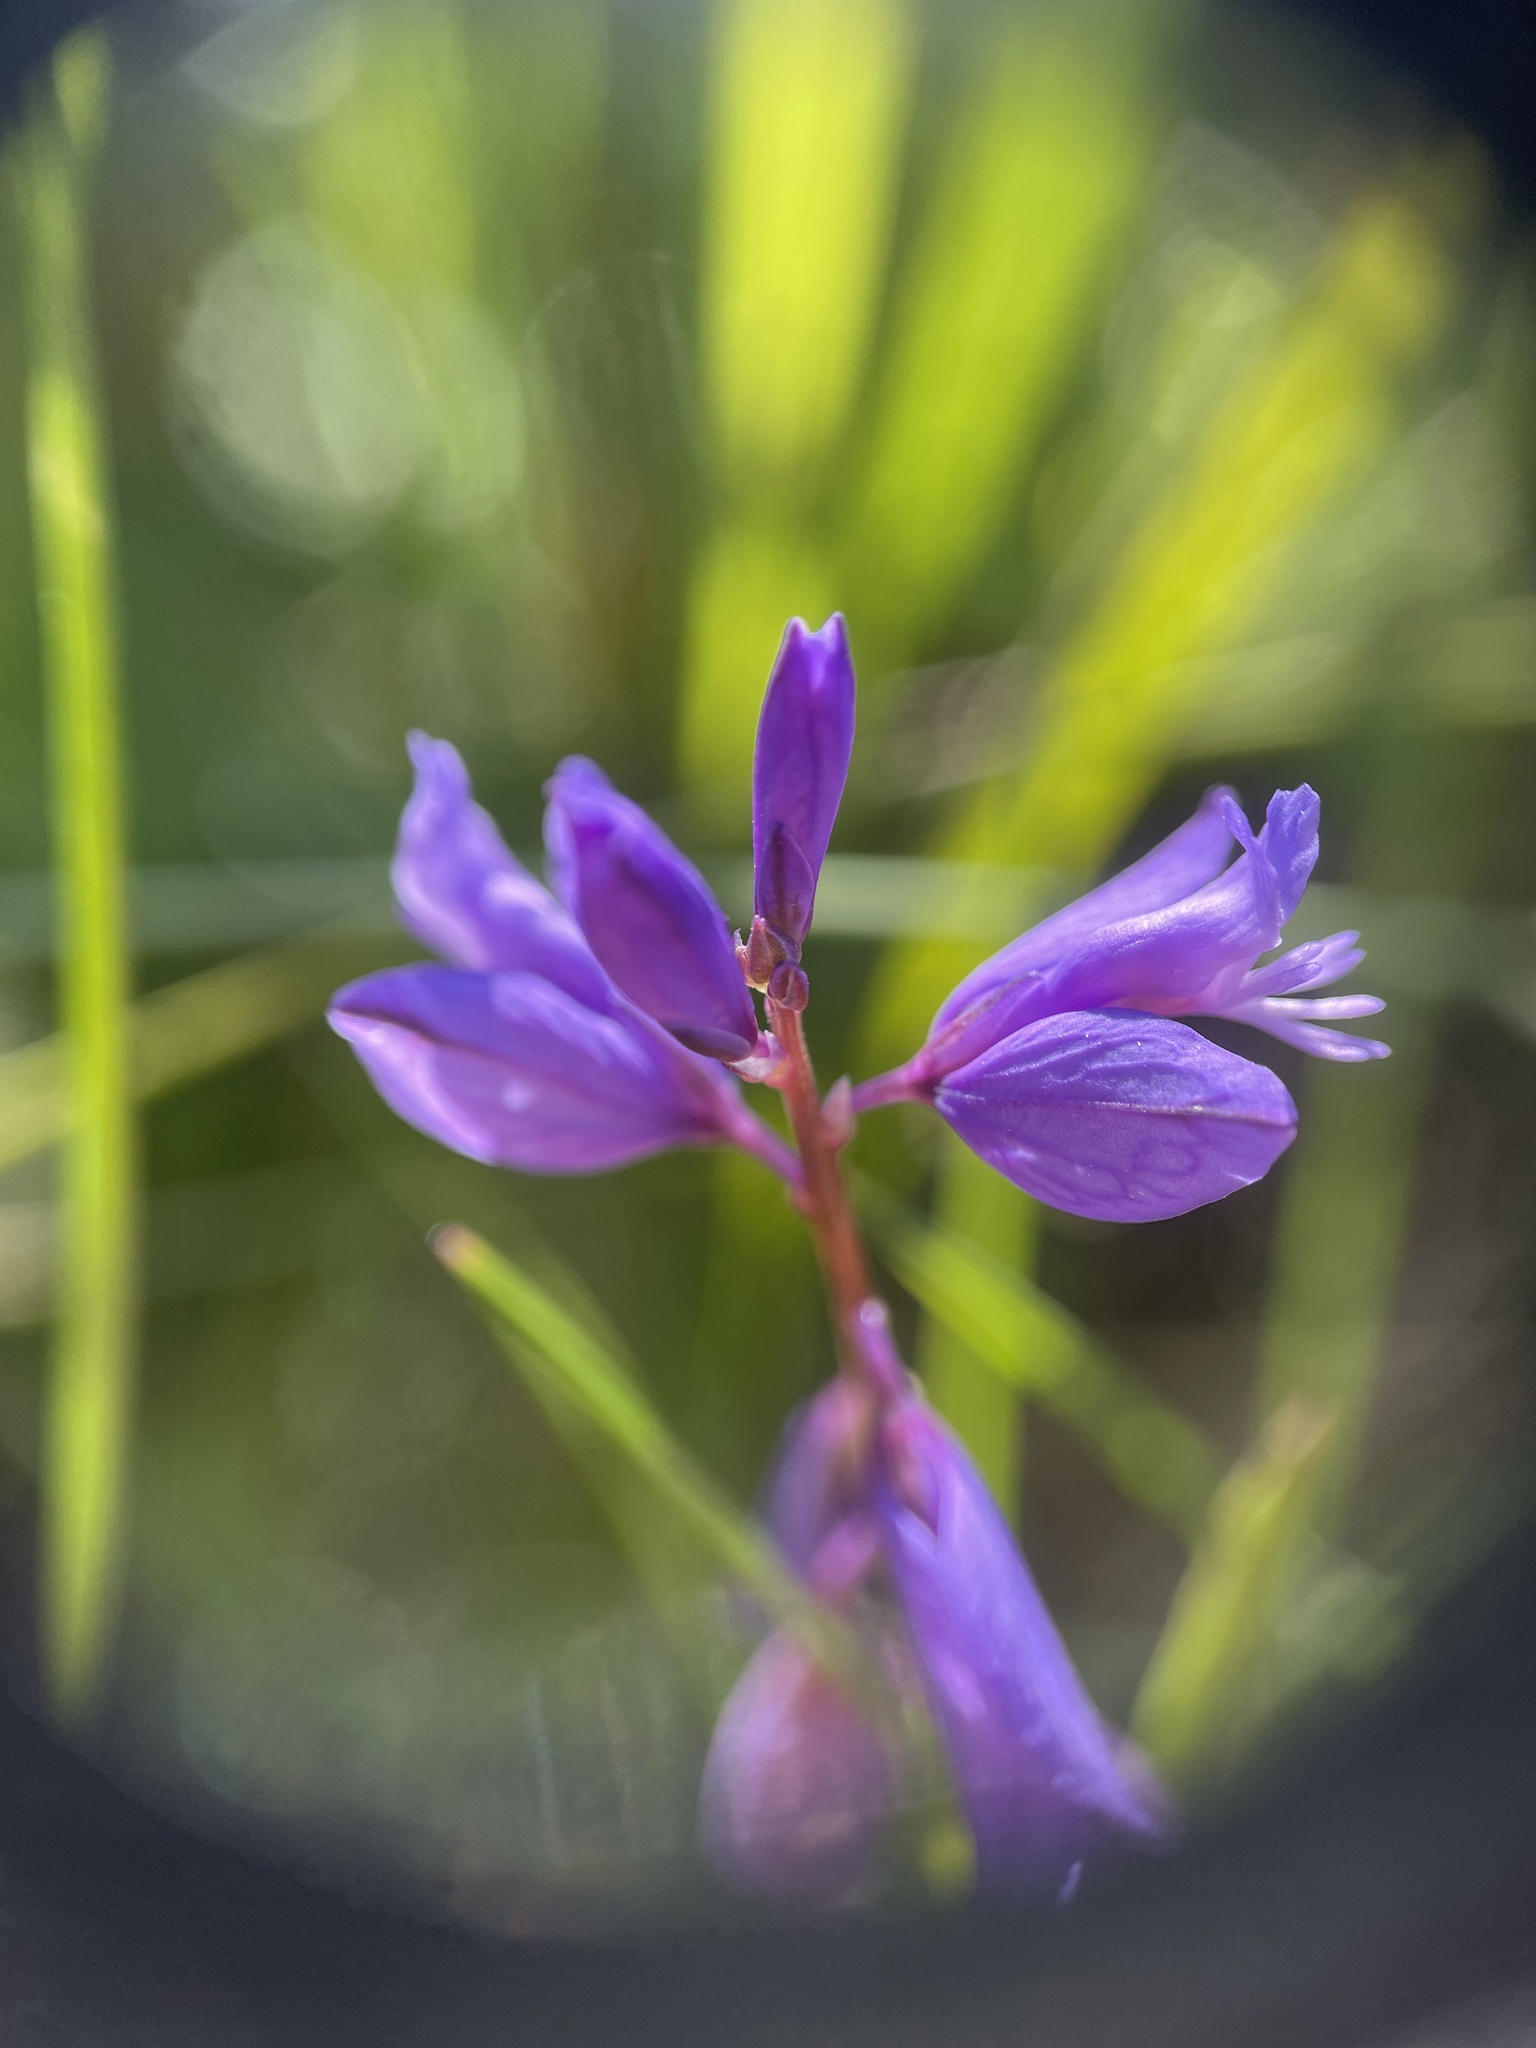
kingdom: Plantae
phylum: Tracheophyta
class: Magnoliopsida
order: Fabales
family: Polygalaceae
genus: Polygala
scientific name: Polygala vulgaris
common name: Common milkwort
